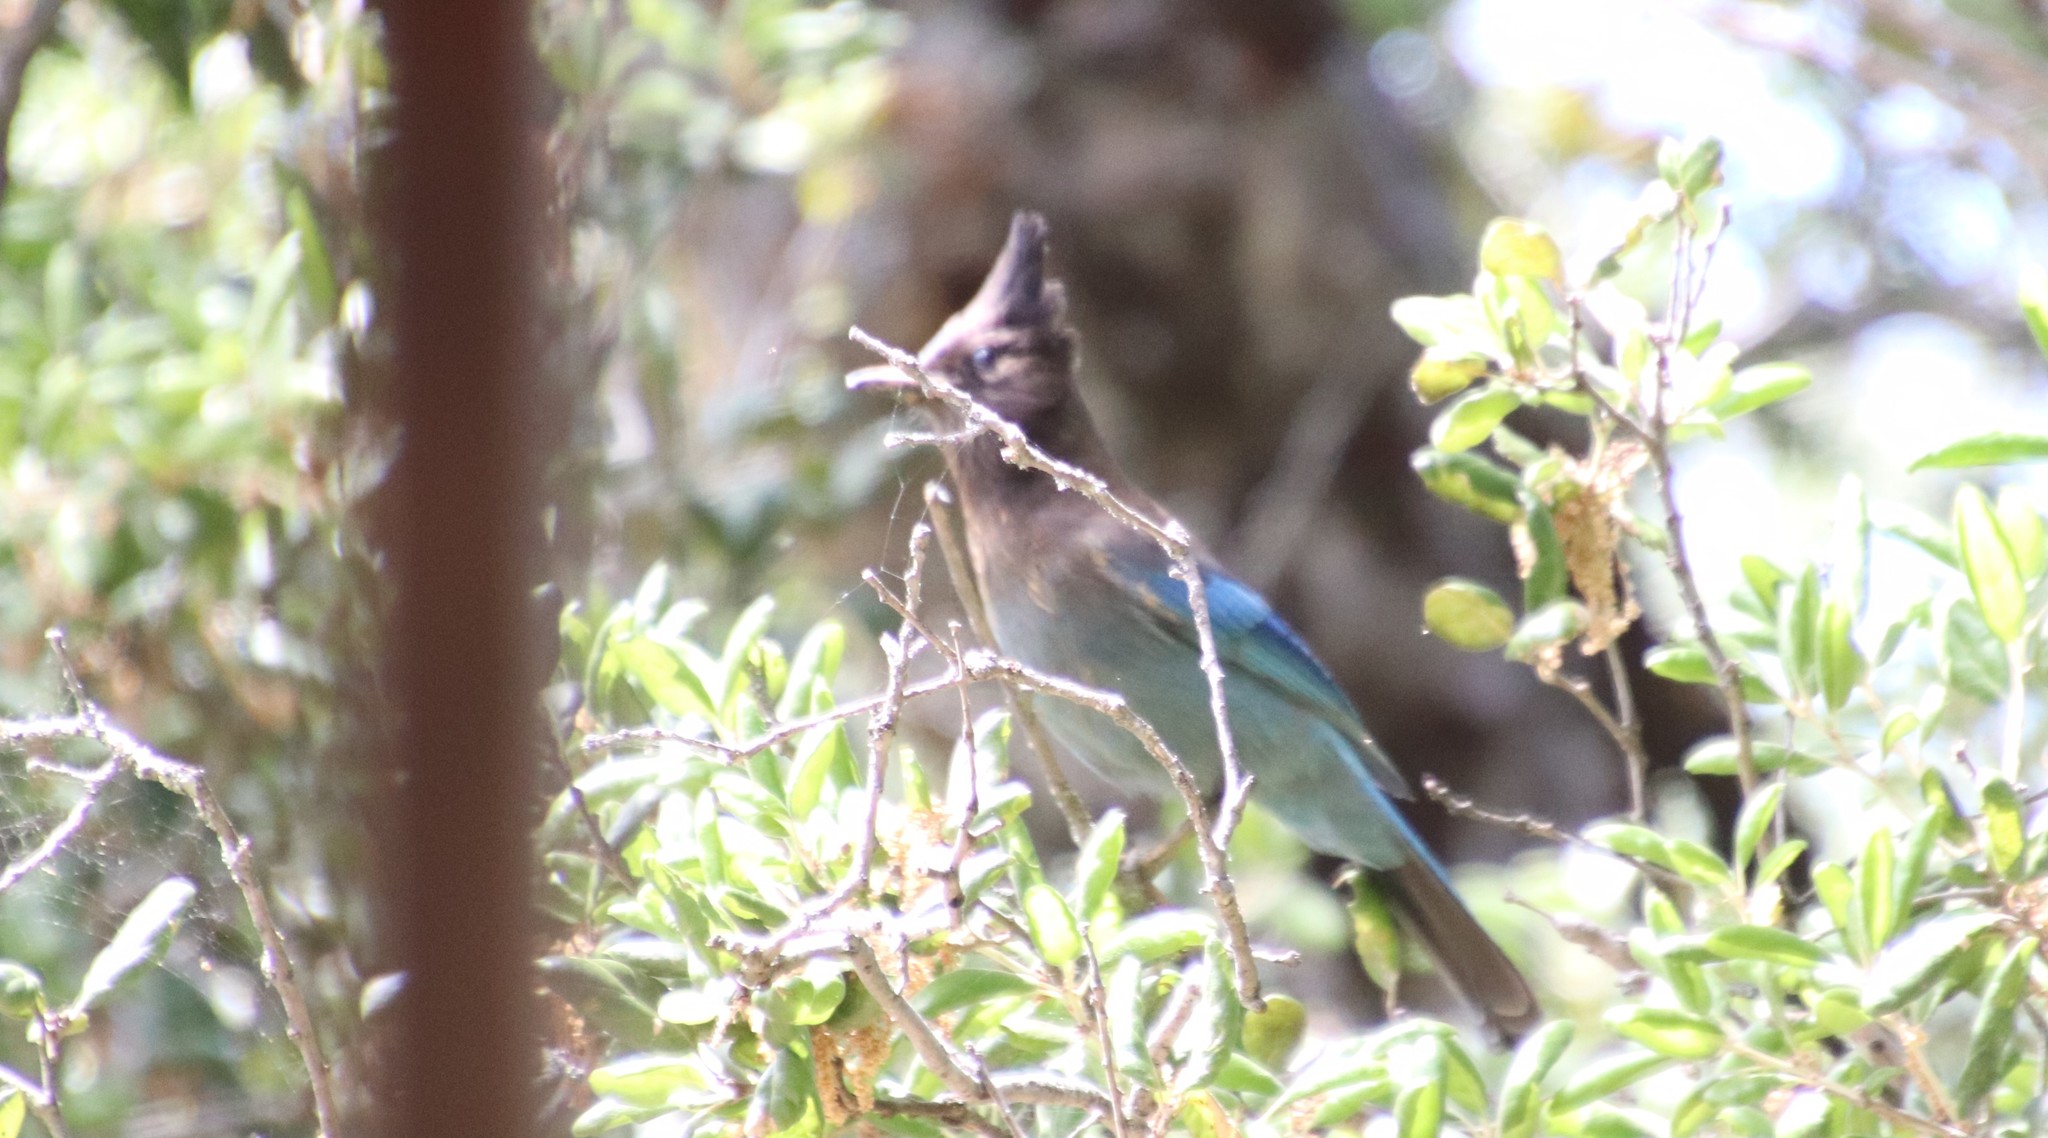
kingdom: Animalia
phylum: Chordata
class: Aves
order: Passeriformes
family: Corvidae
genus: Cyanocitta
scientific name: Cyanocitta stelleri
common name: Steller's jay
